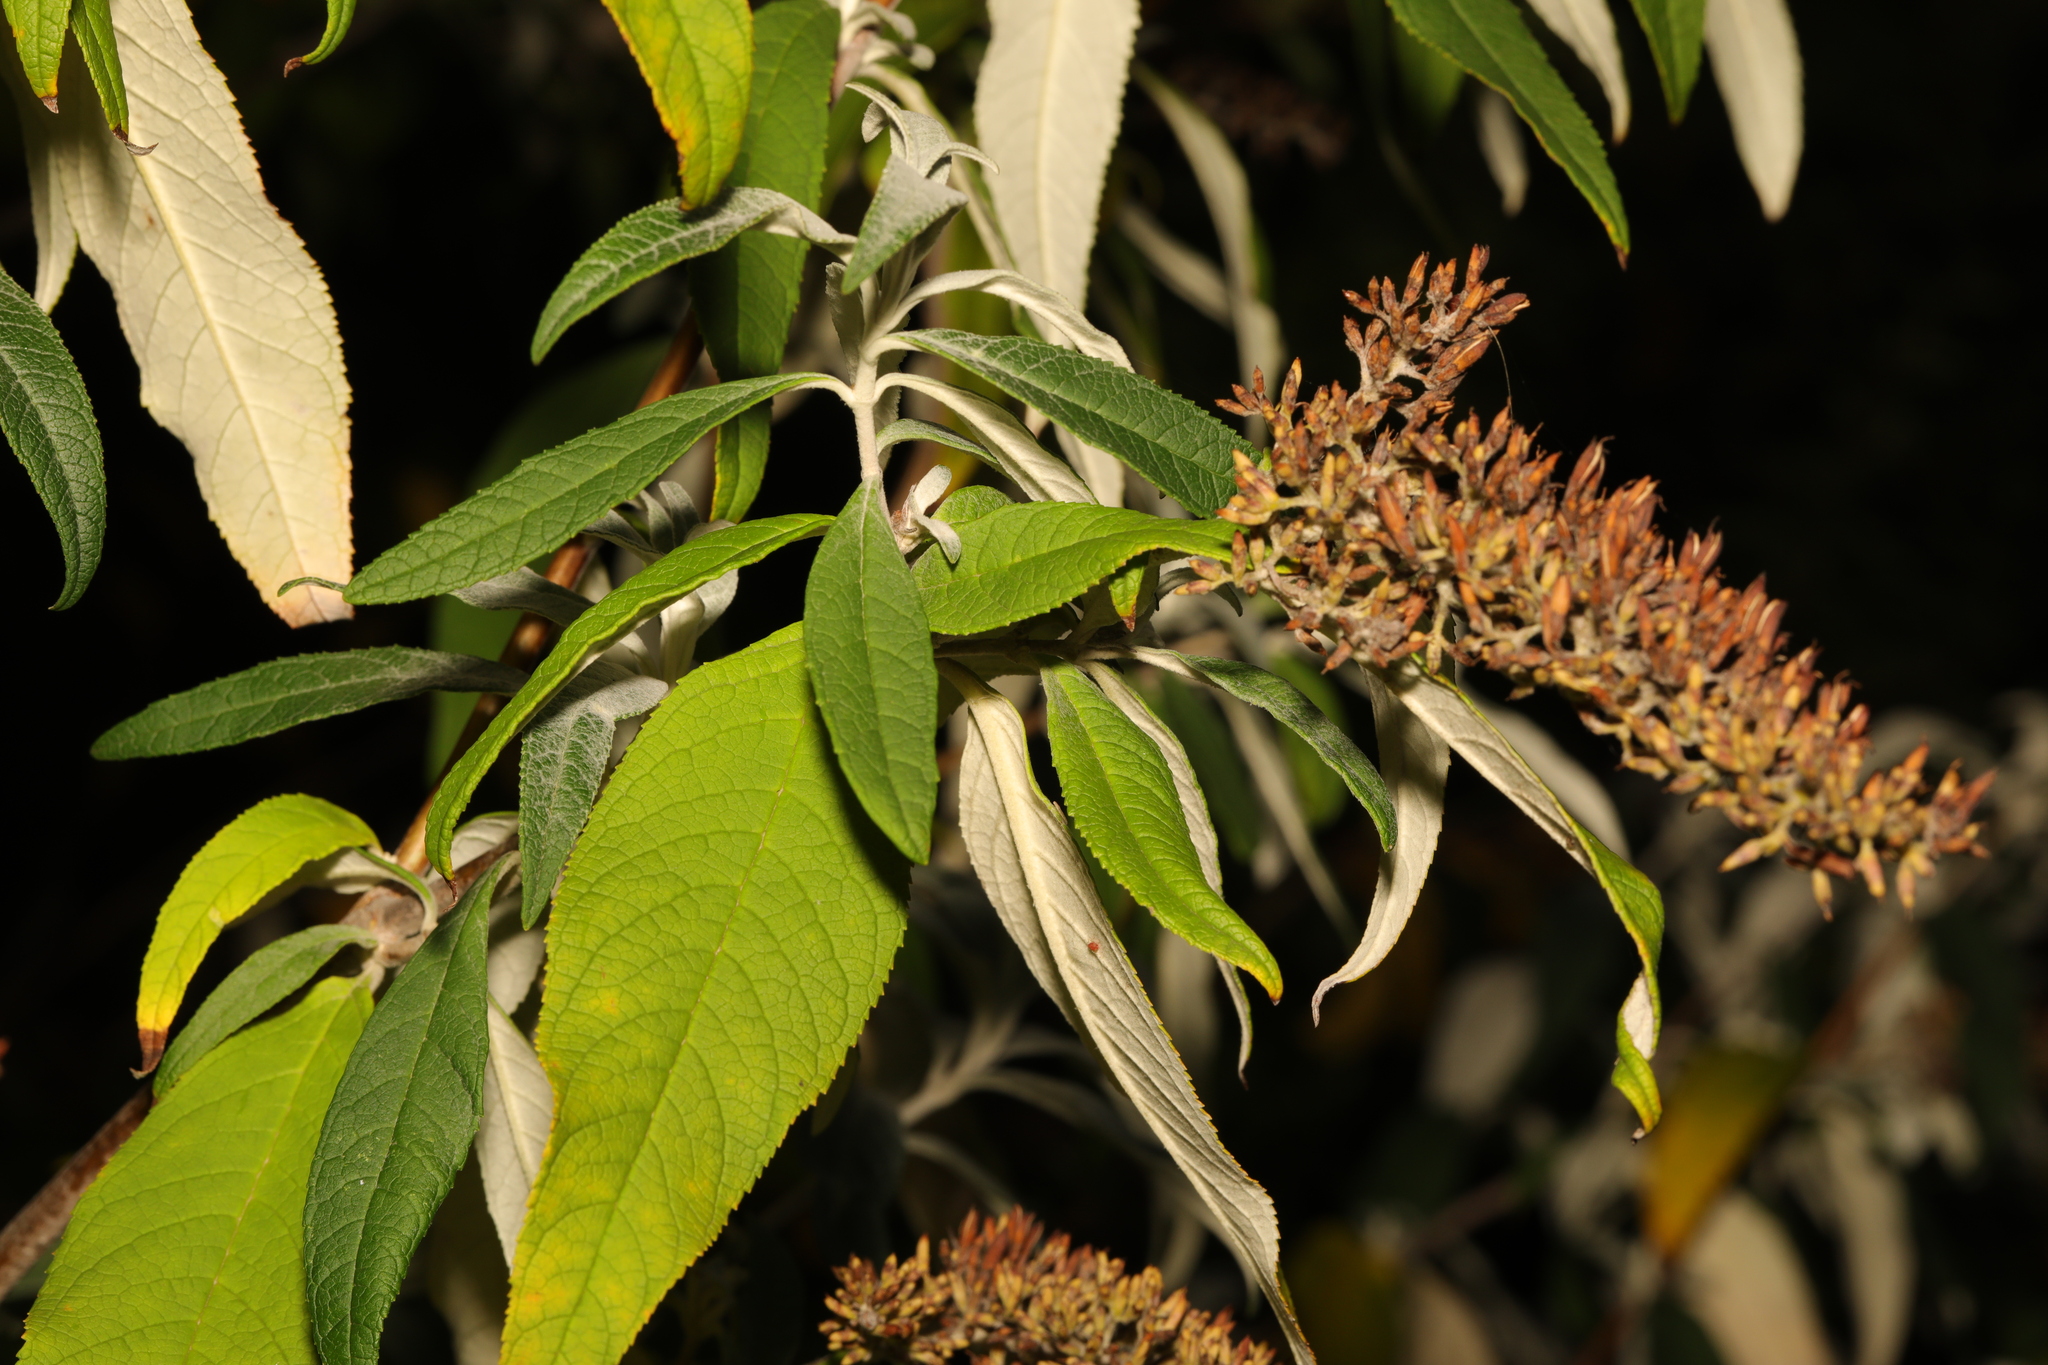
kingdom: Plantae
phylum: Tracheophyta
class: Magnoliopsida
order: Lamiales
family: Scrophulariaceae
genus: Buddleja
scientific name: Buddleja davidii
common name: Butterfly-bush
